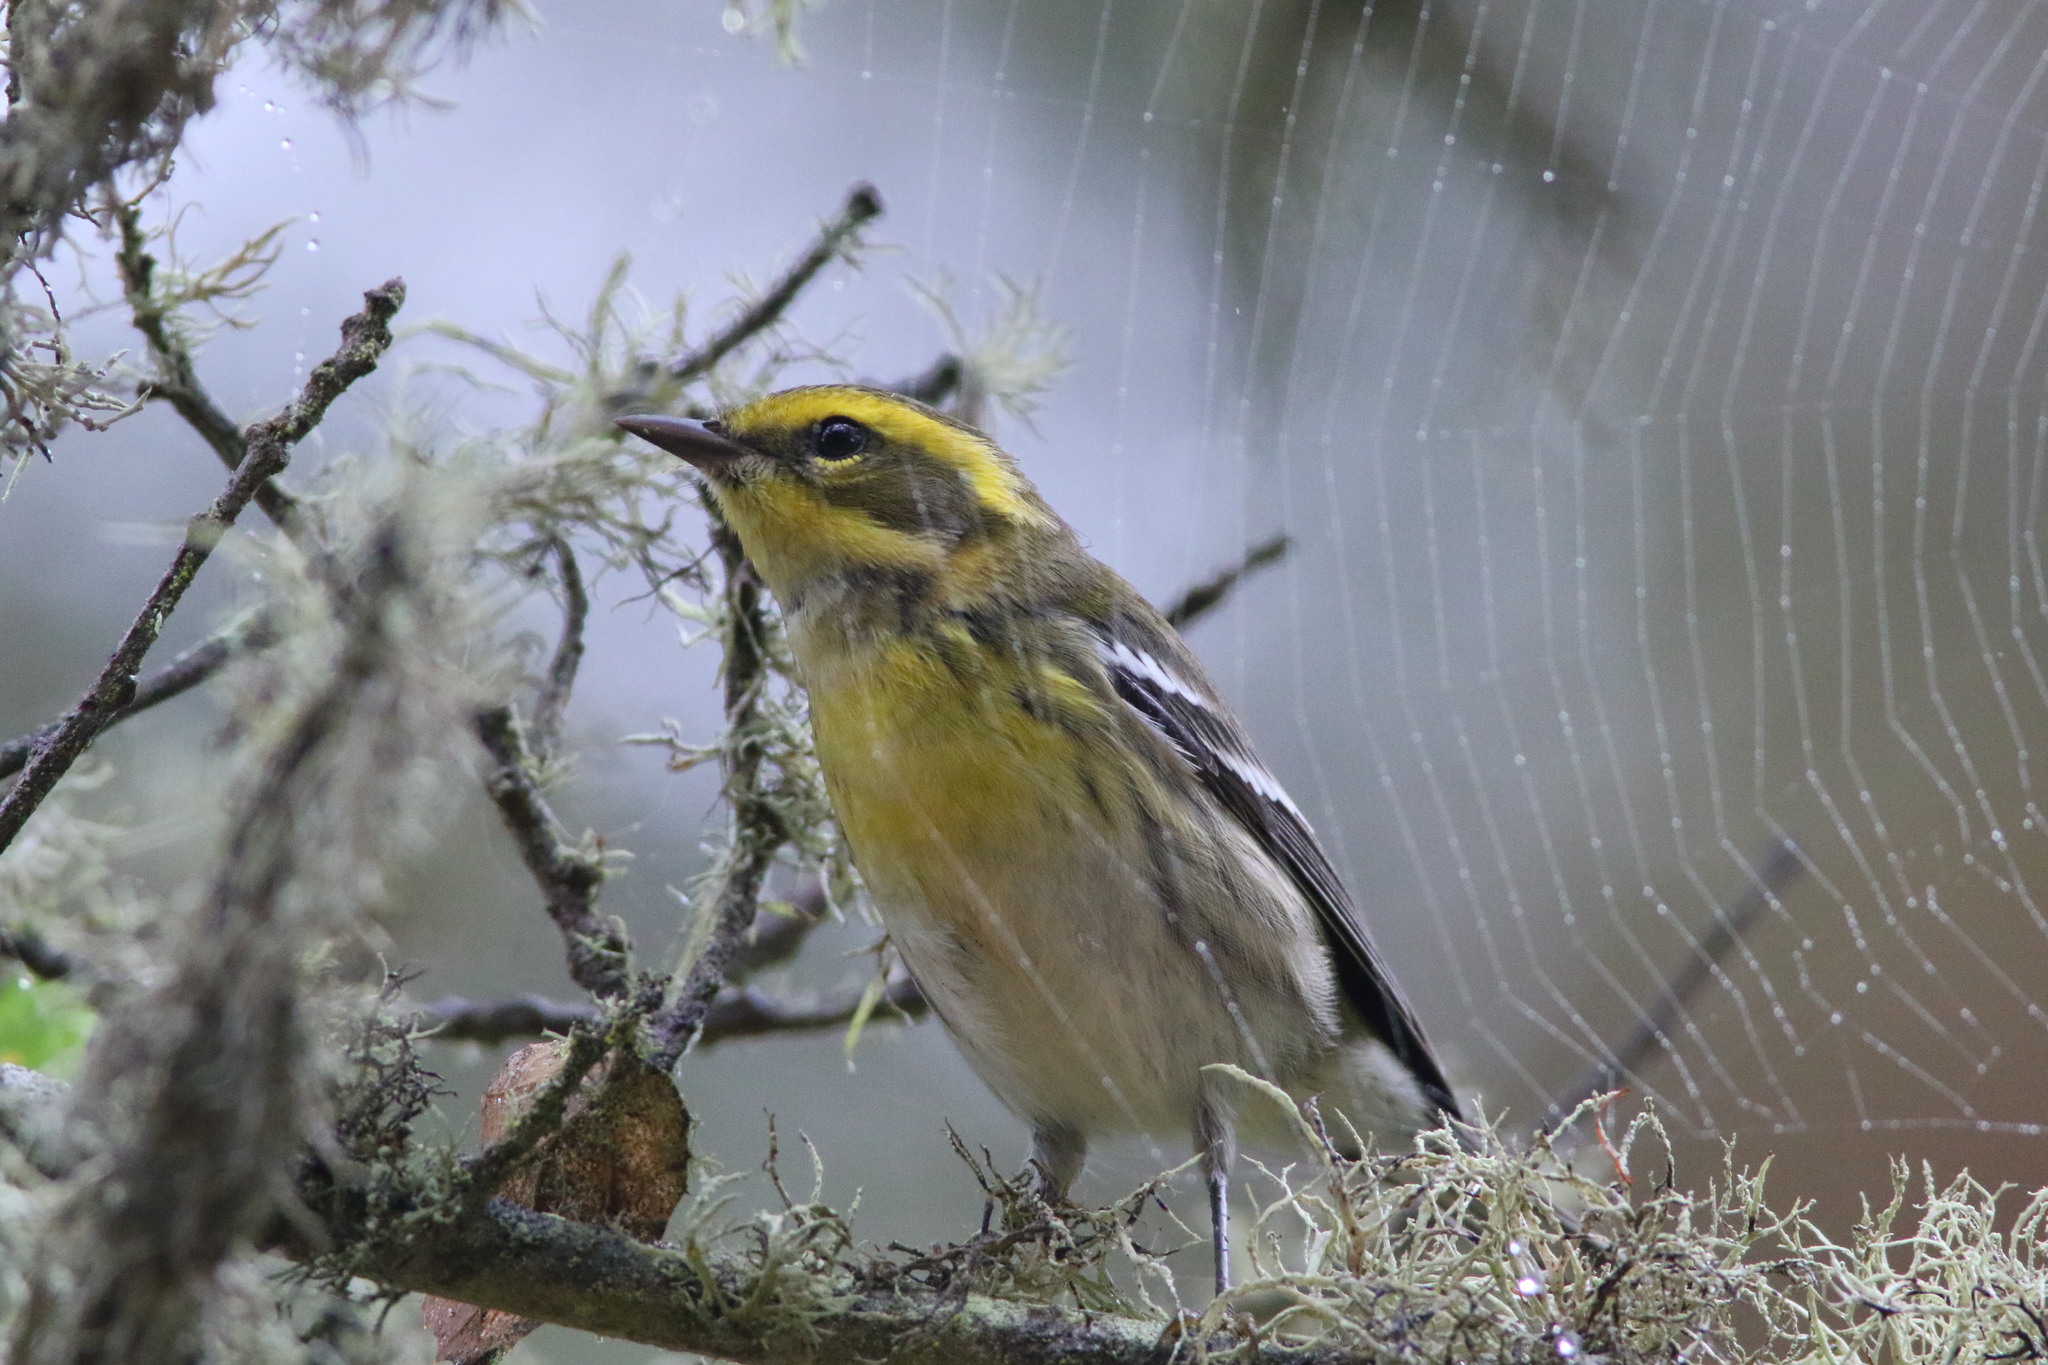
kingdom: Animalia
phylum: Chordata
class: Aves
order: Passeriformes
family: Parulidae
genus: Setophaga
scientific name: Setophaga townsendi
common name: Townsend's warbler
